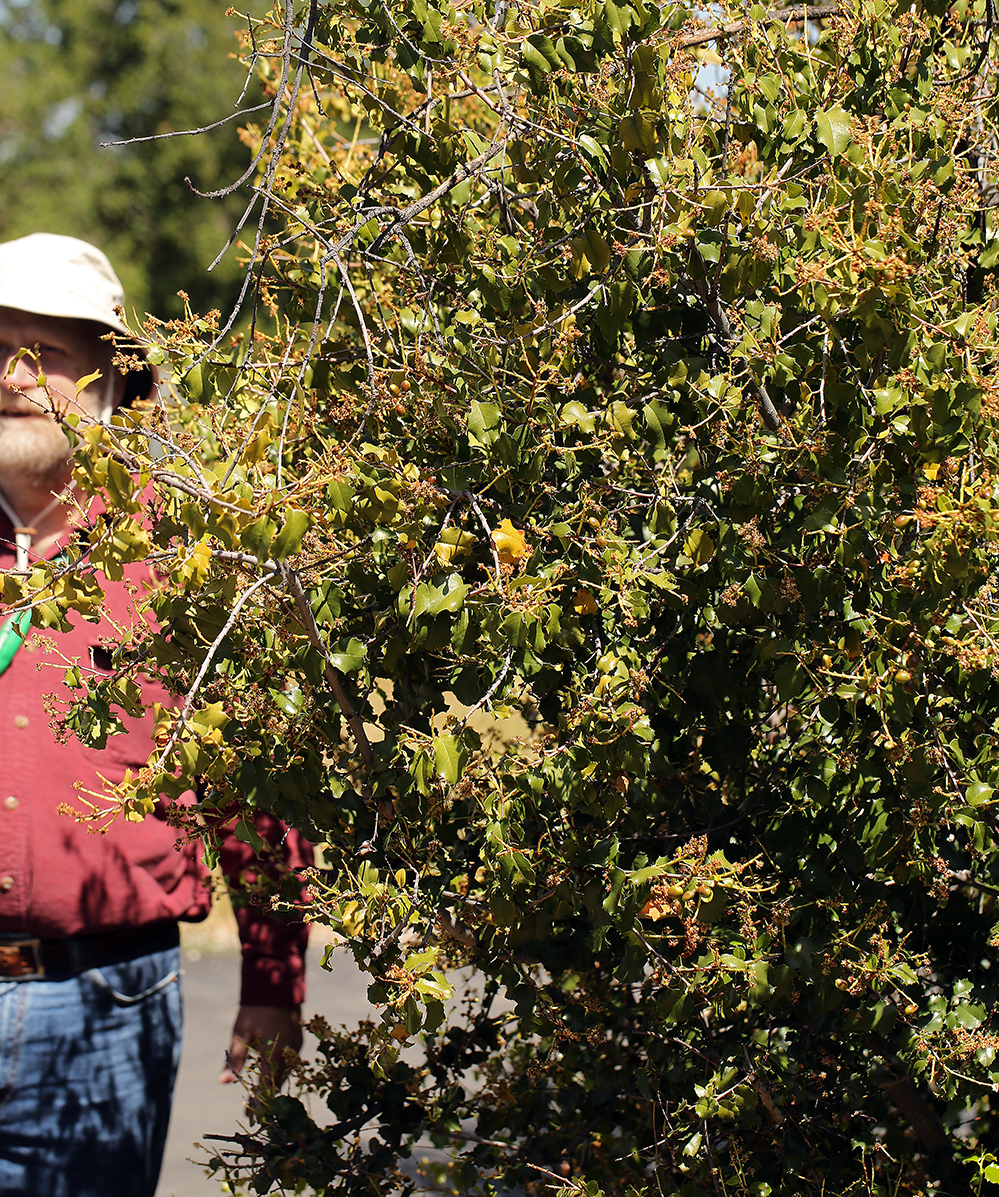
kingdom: Plantae
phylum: Tracheophyta
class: Magnoliopsida
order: Rosales
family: Rosaceae
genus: Prunus
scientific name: Prunus ilicifolia
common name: Hollyleaf cherry
